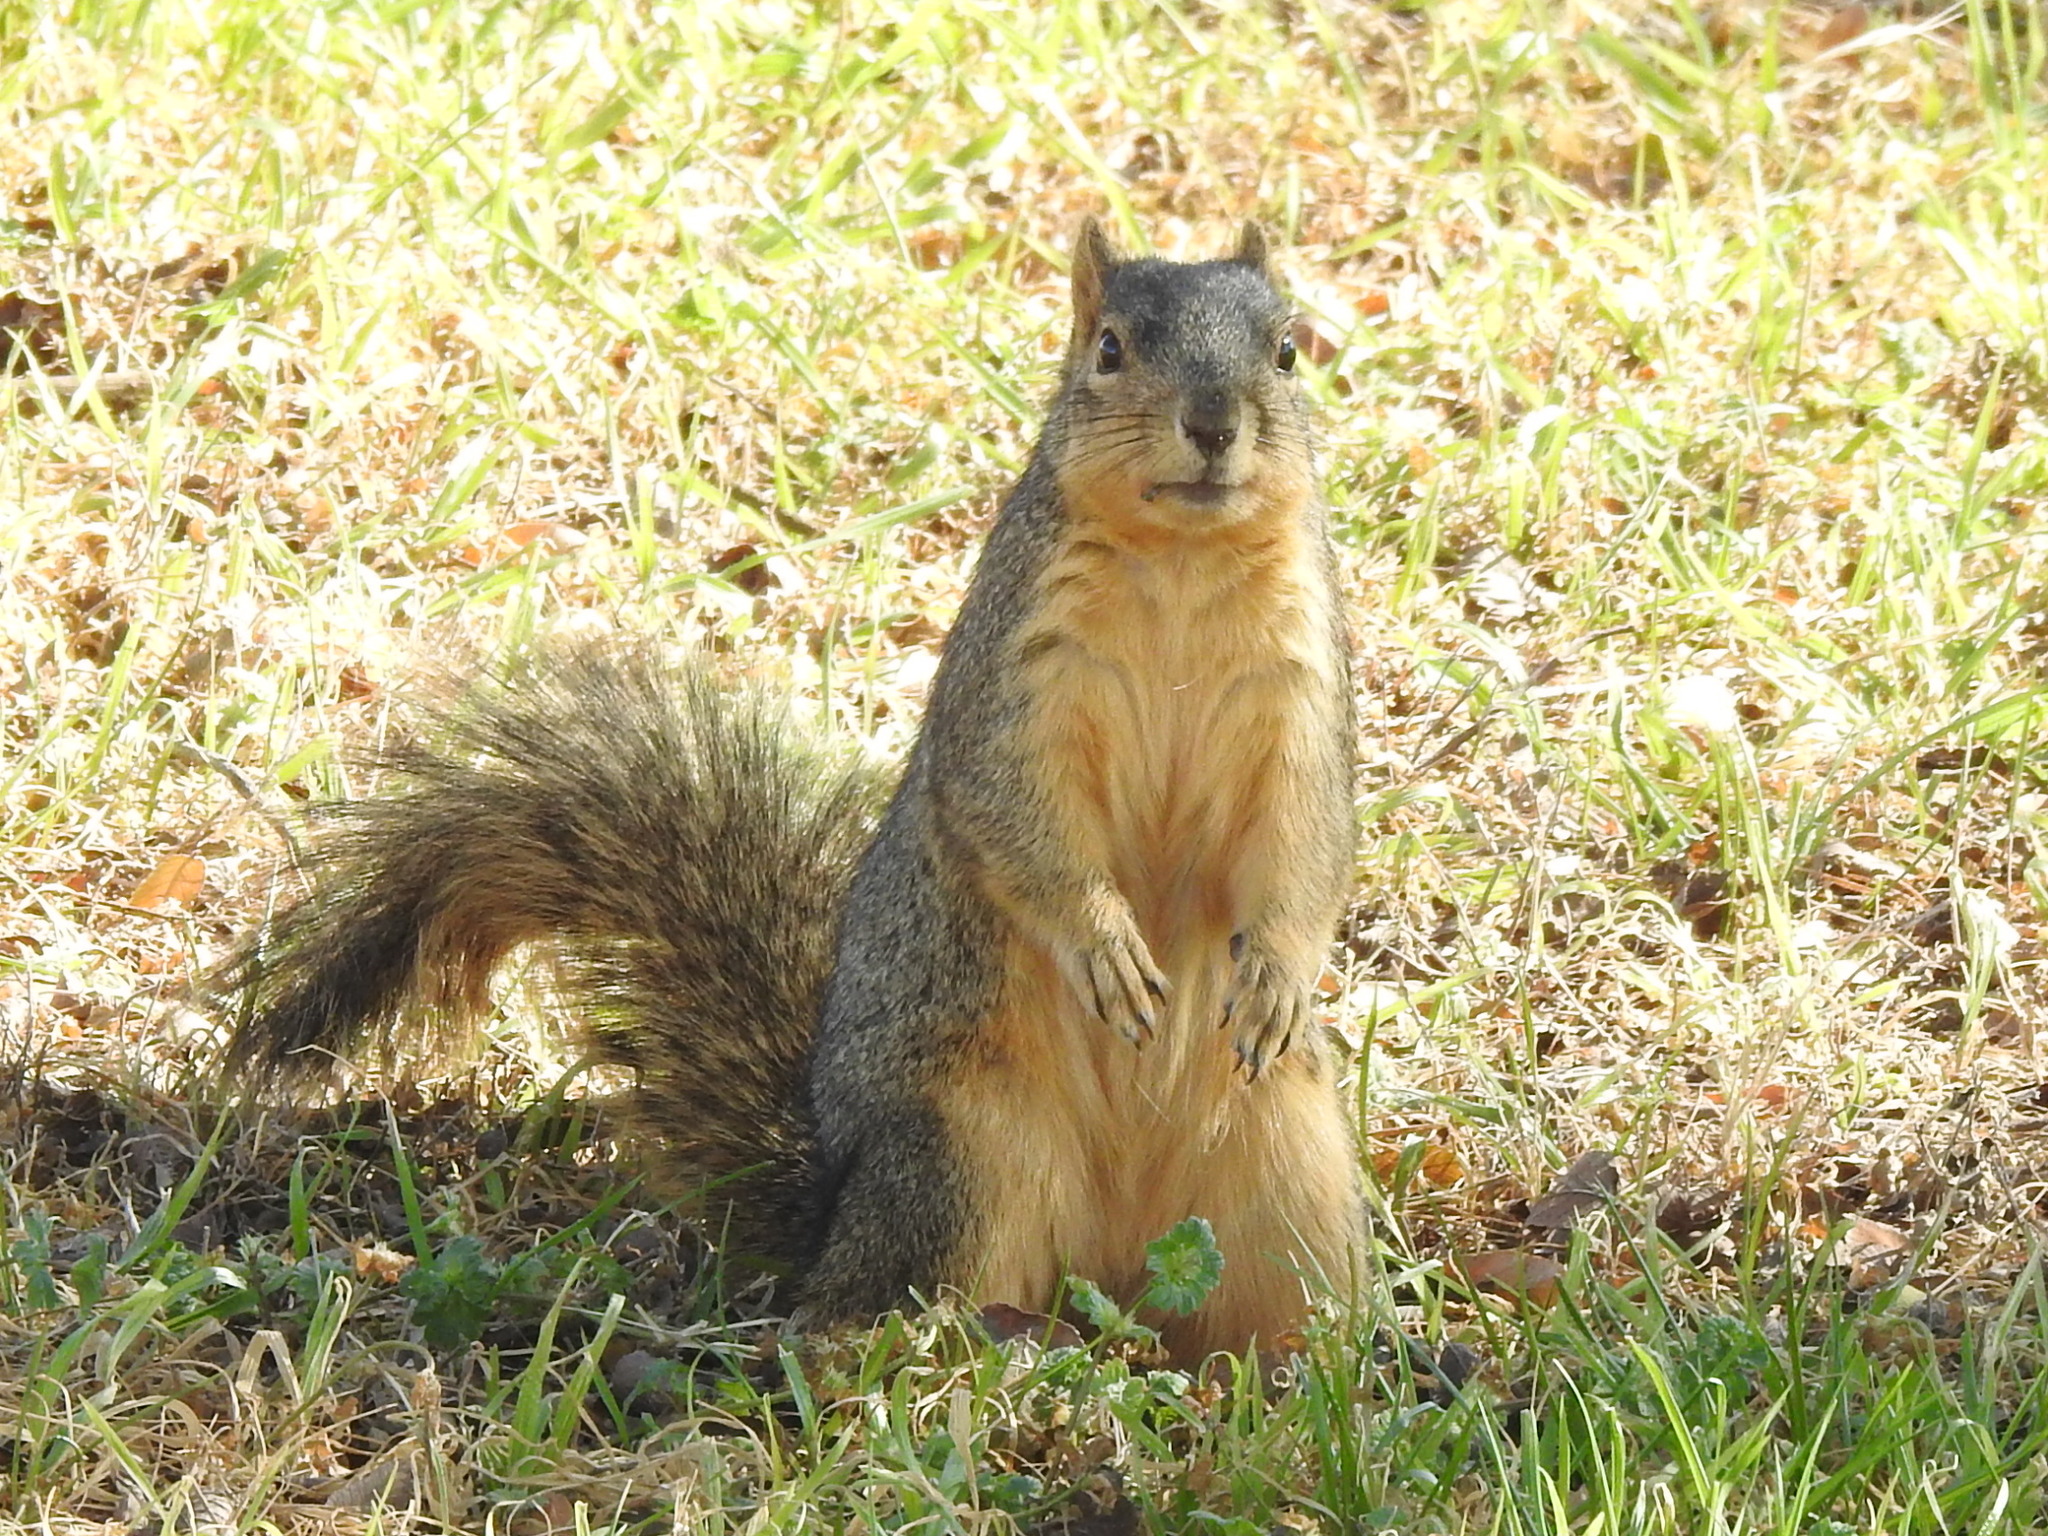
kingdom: Animalia
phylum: Chordata
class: Mammalia
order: Rodentia
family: Sciuridae
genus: Sciurus
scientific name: Sciurus niger
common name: Fox squirrel
